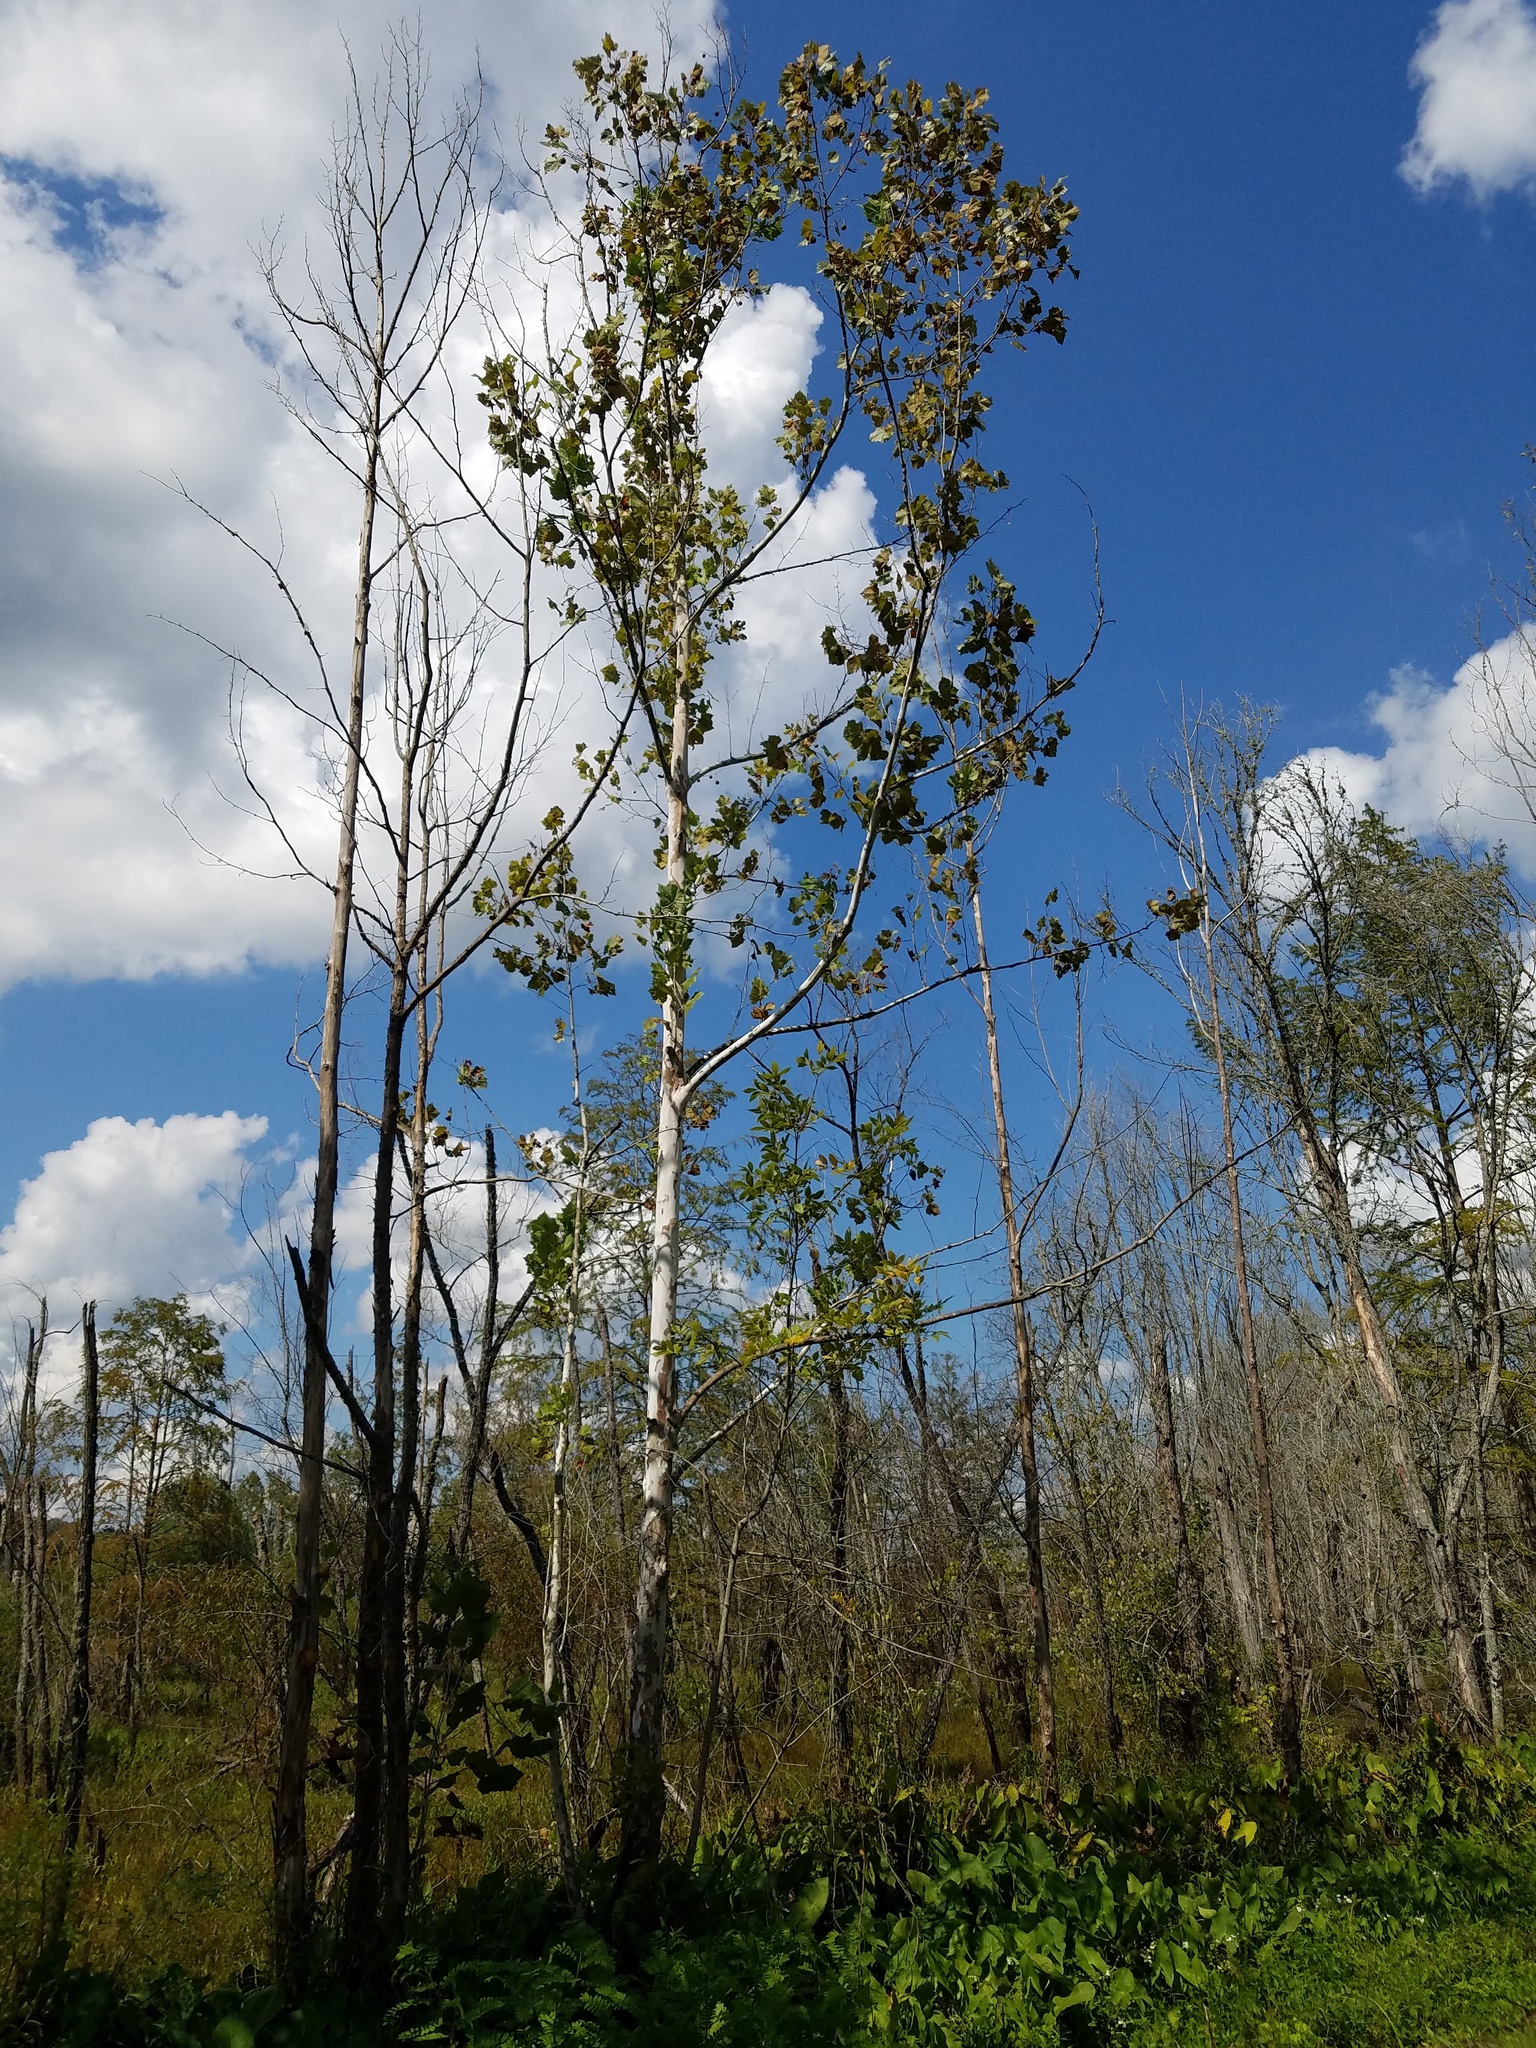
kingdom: Plantae
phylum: Tracheophyta
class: Magnoliopsida
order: Proteales
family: Platanaceae
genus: Platanus
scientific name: Platanus occidentalis
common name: American sycamore
